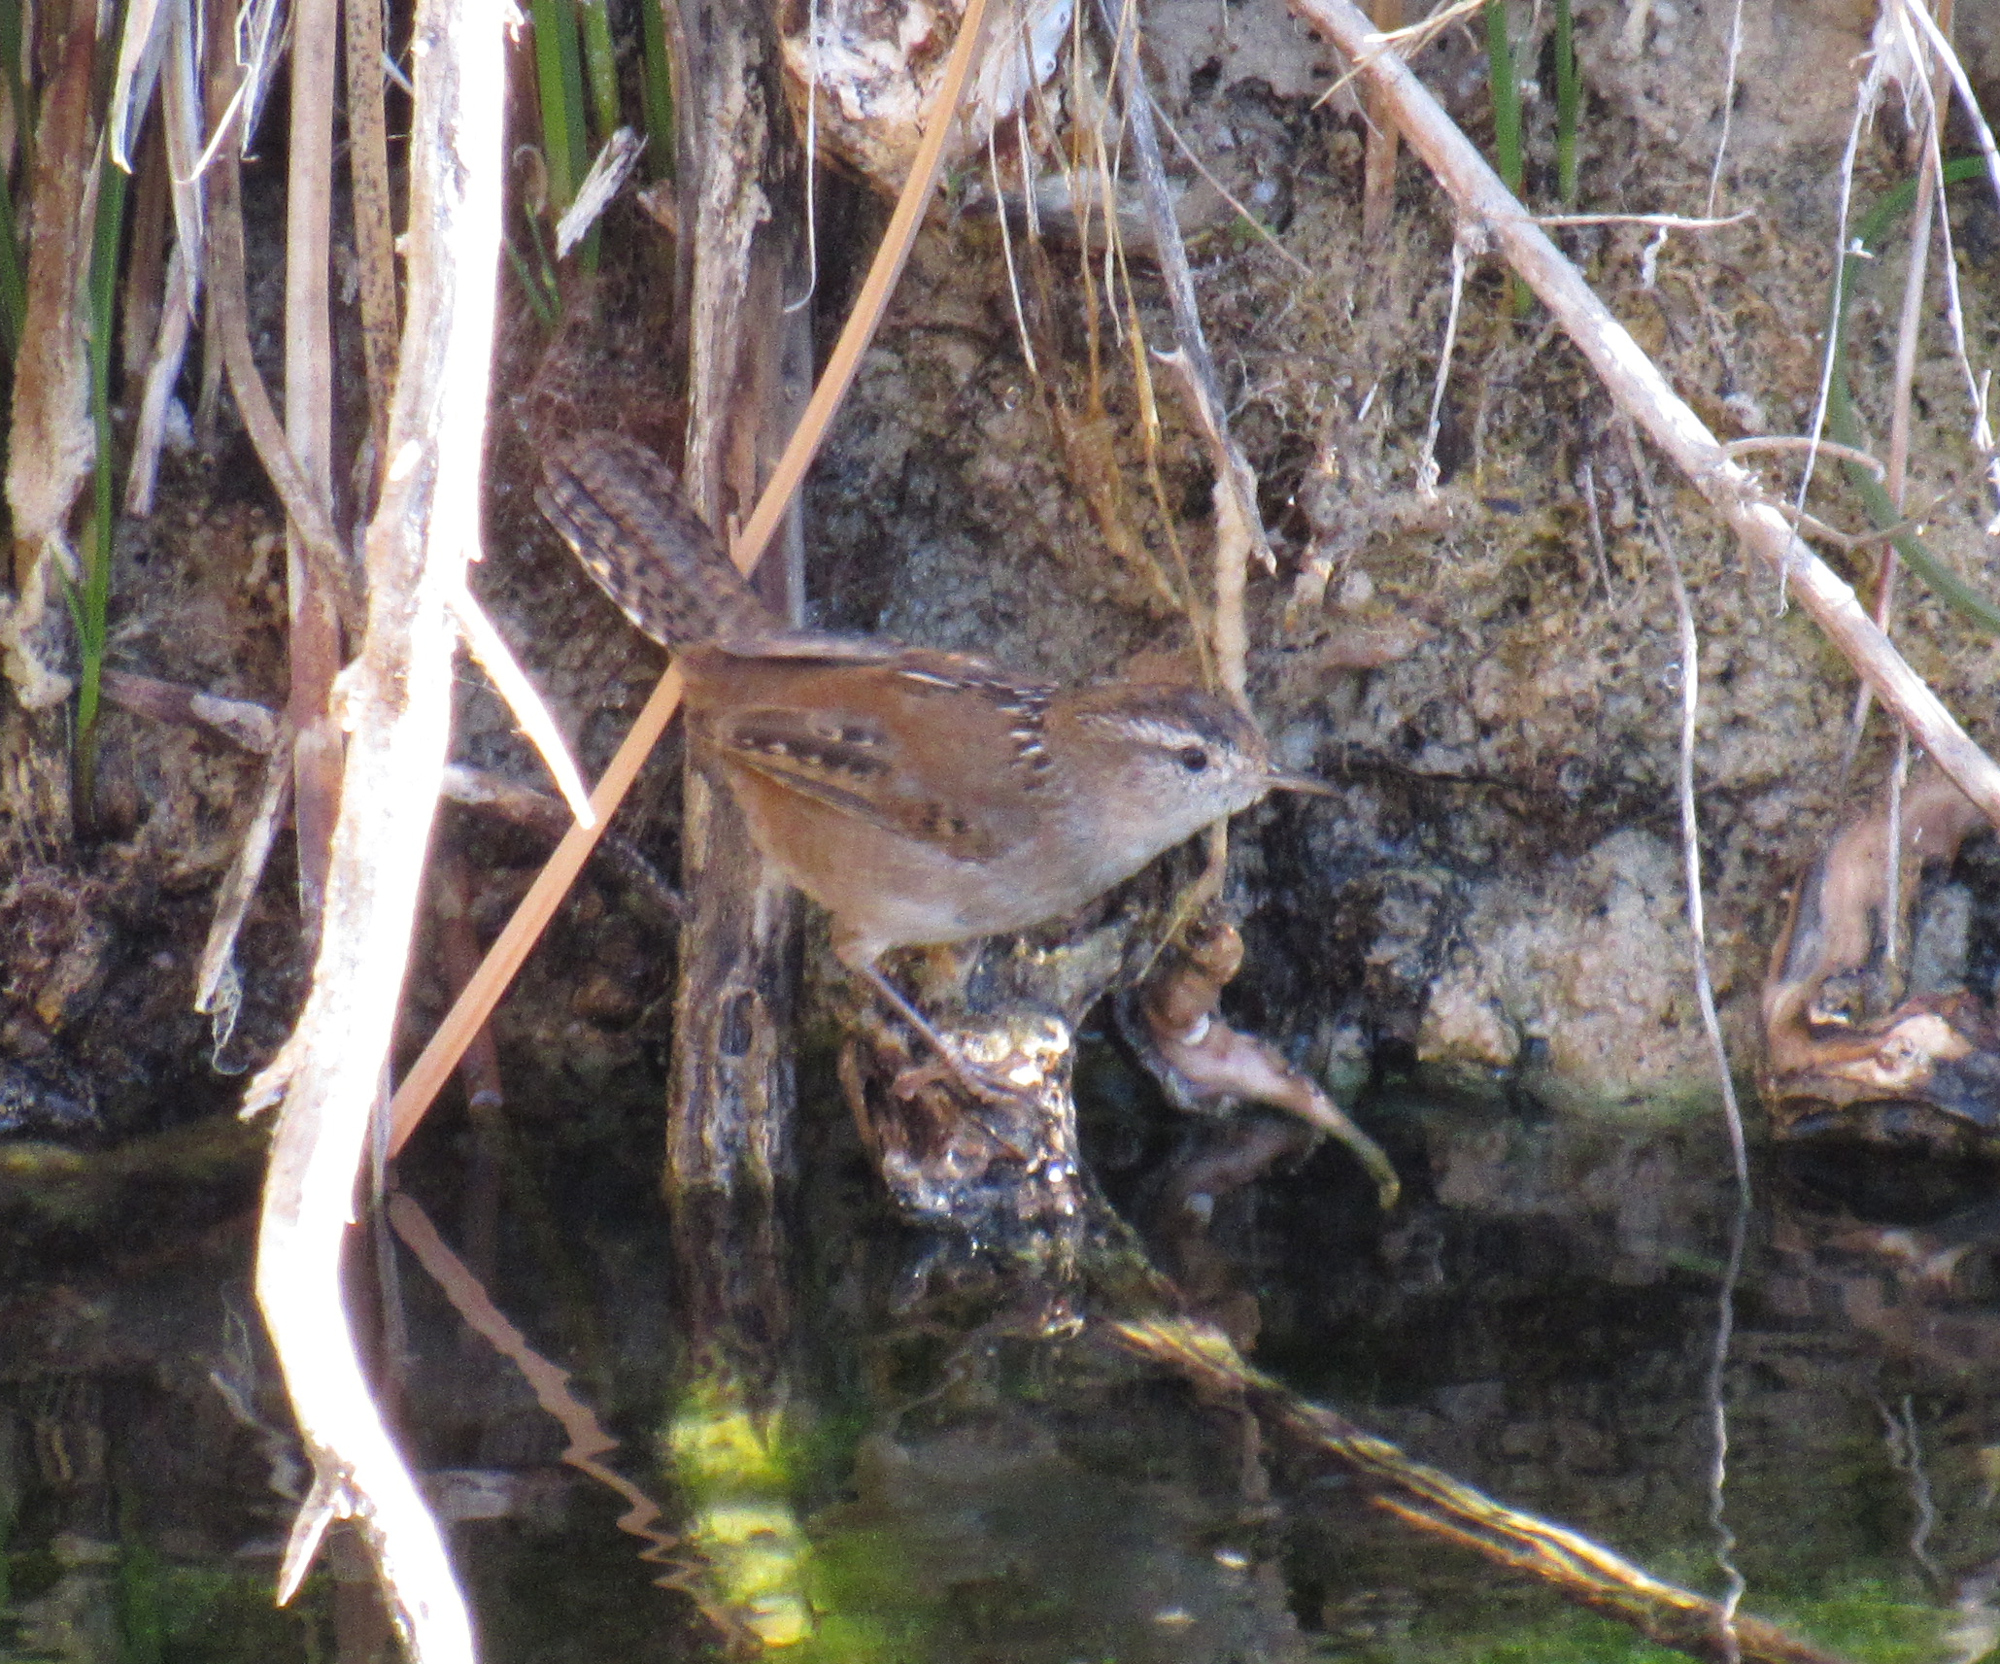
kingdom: Animalia
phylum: Chordata
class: Aves
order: Passeriformes
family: Troglodytidae
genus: Cistothorus
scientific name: Cistothorus palustris
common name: Marsh wren
